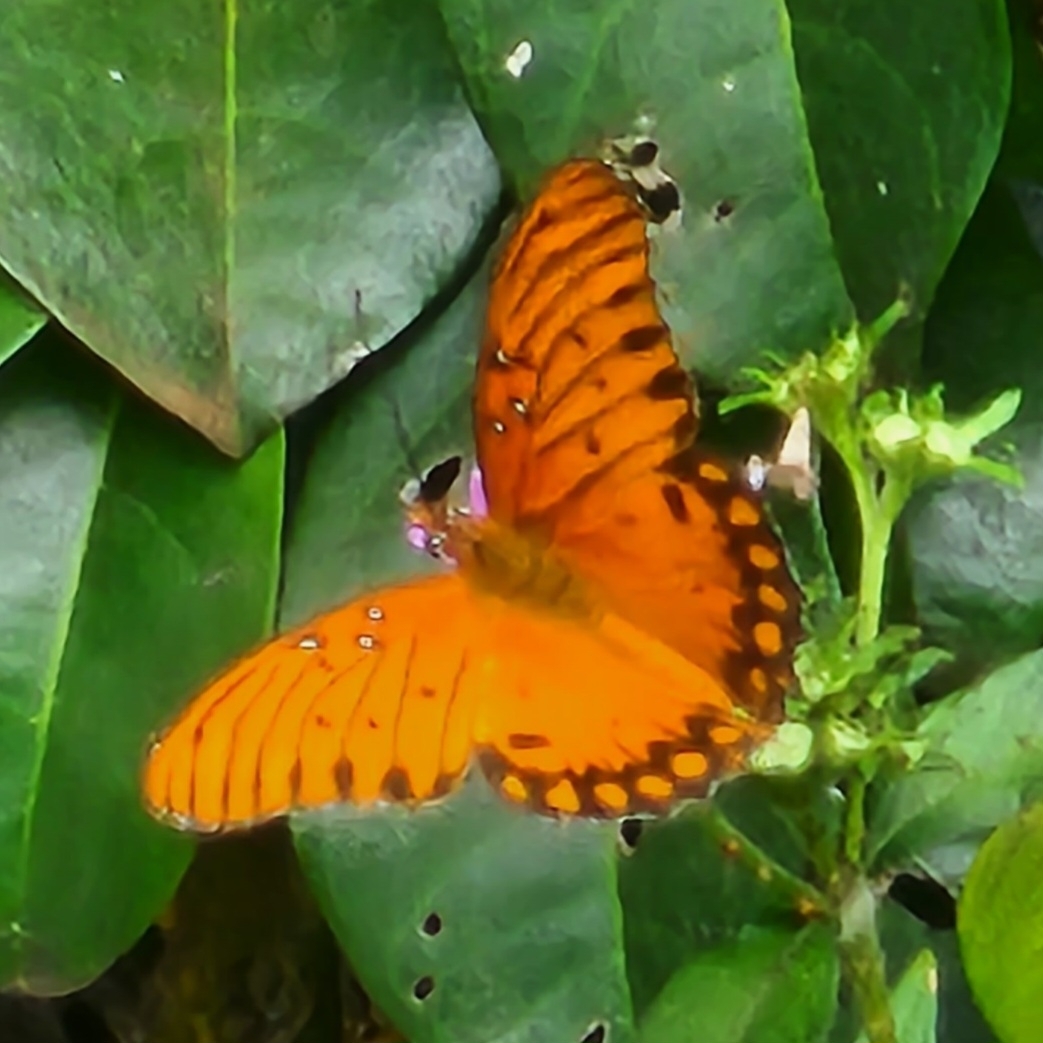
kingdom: Animalia
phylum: Arthropoda
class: Insecta
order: Lepidoptera
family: Nymphalidae
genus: Dione
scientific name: Dione vanillae
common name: Gulf fritillary
